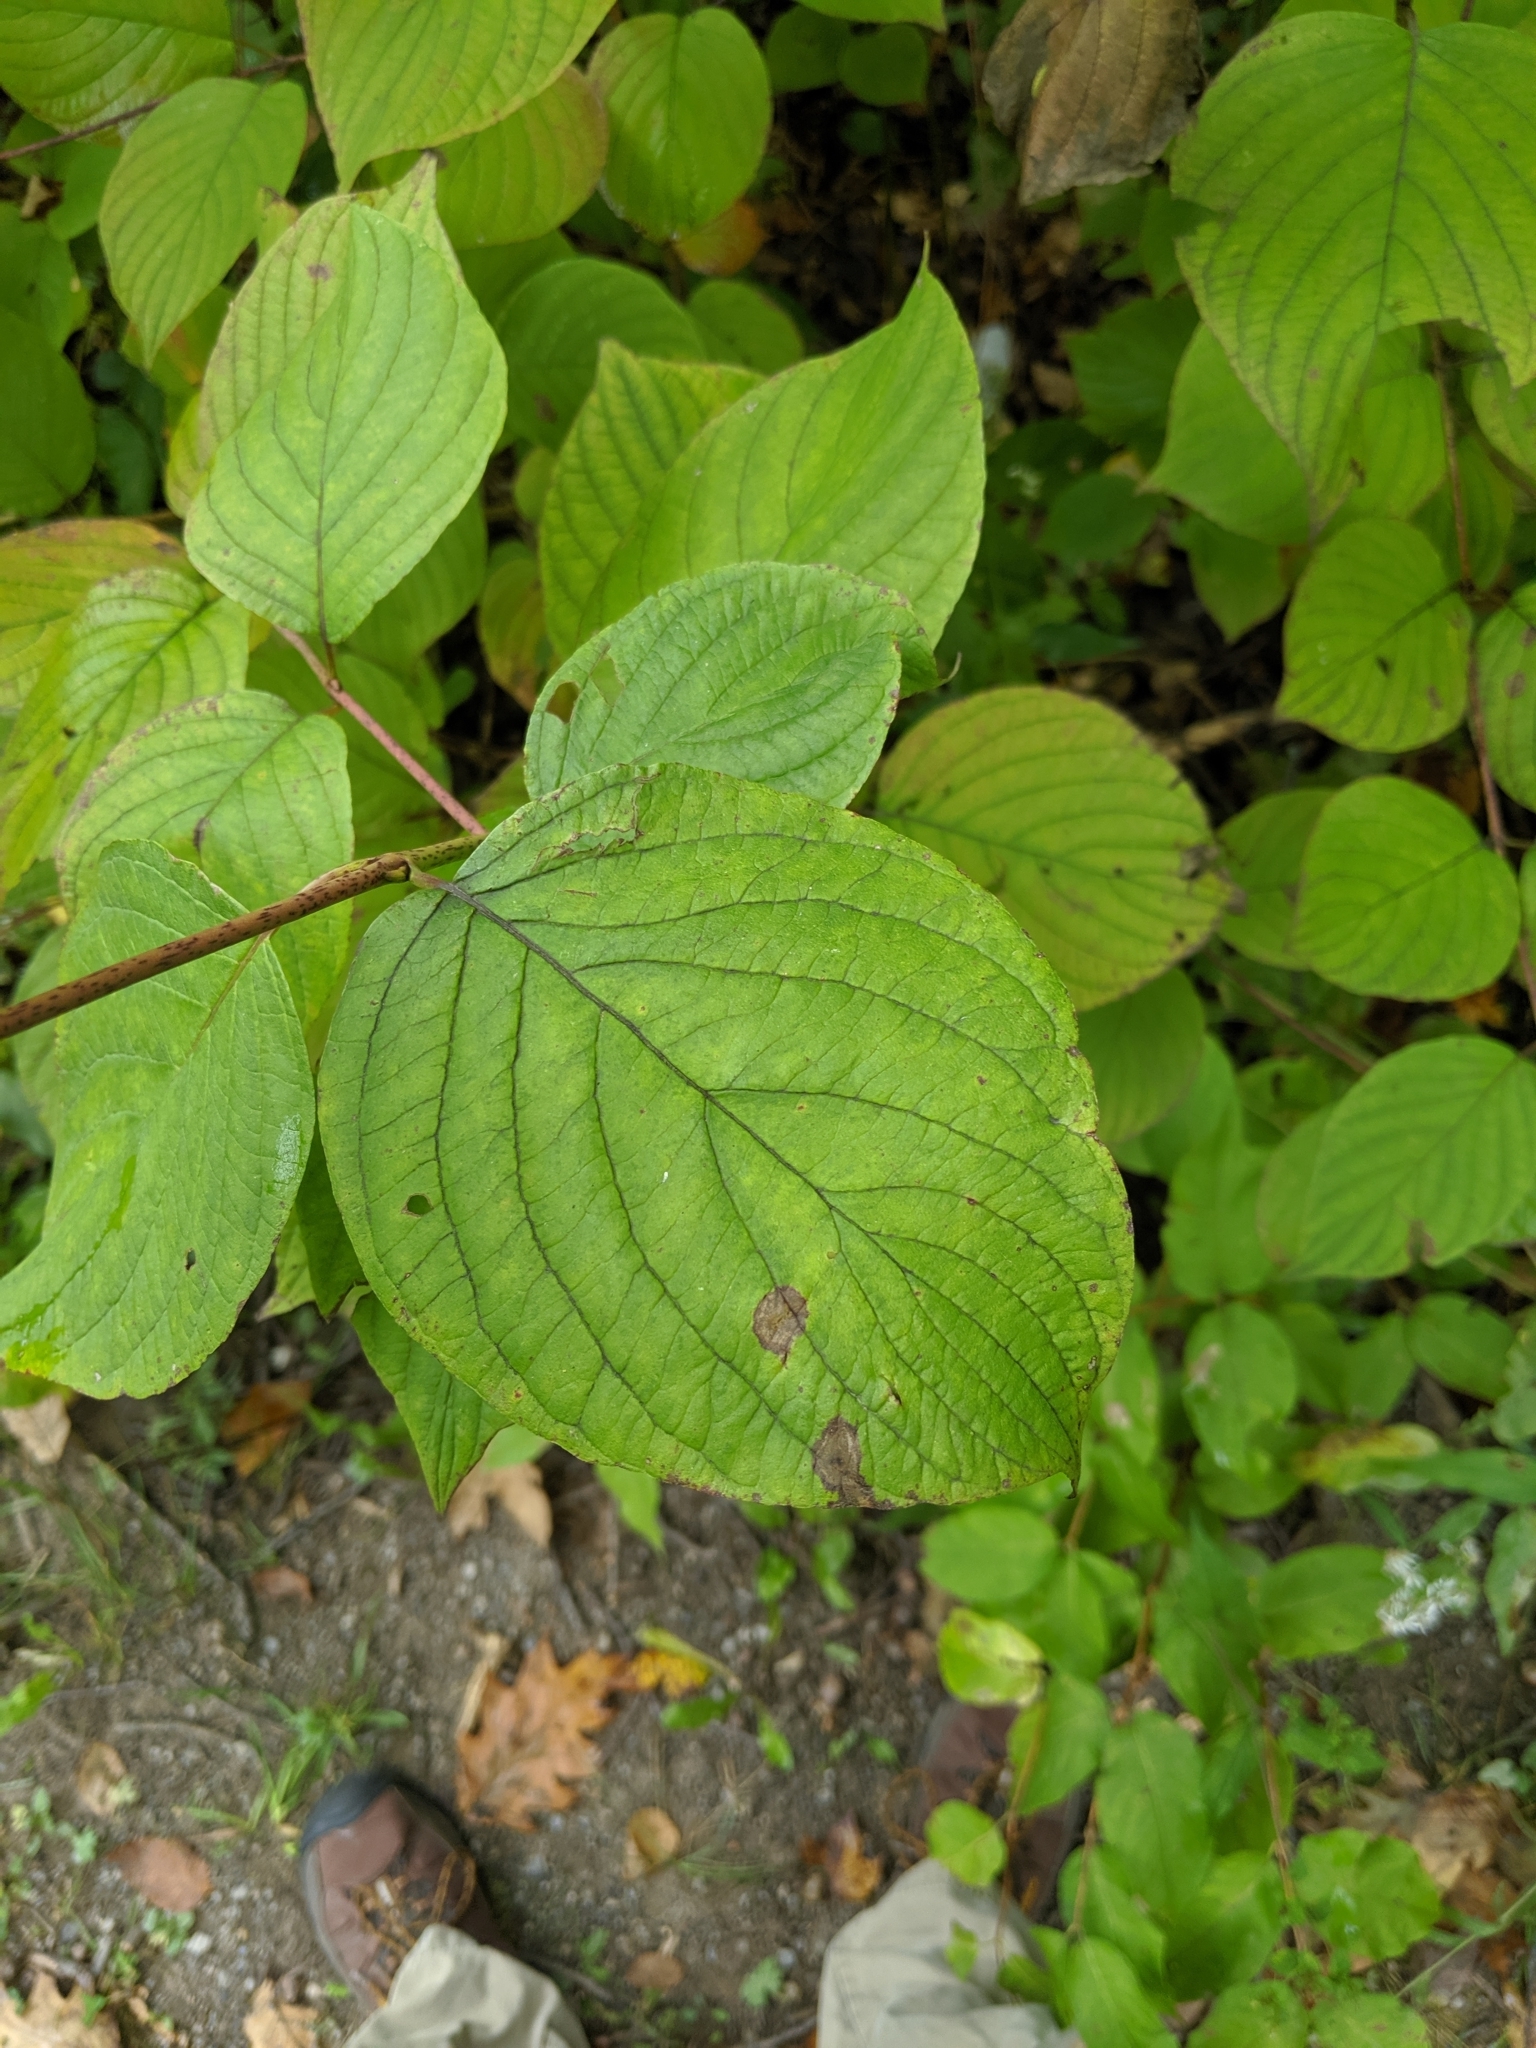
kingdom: Plantae
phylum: Tracheophyta
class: Magnoliopsida
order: Cornales
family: Cornaceae
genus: Cornus
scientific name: Cornus rugosa
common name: Round-leaf dogwood
